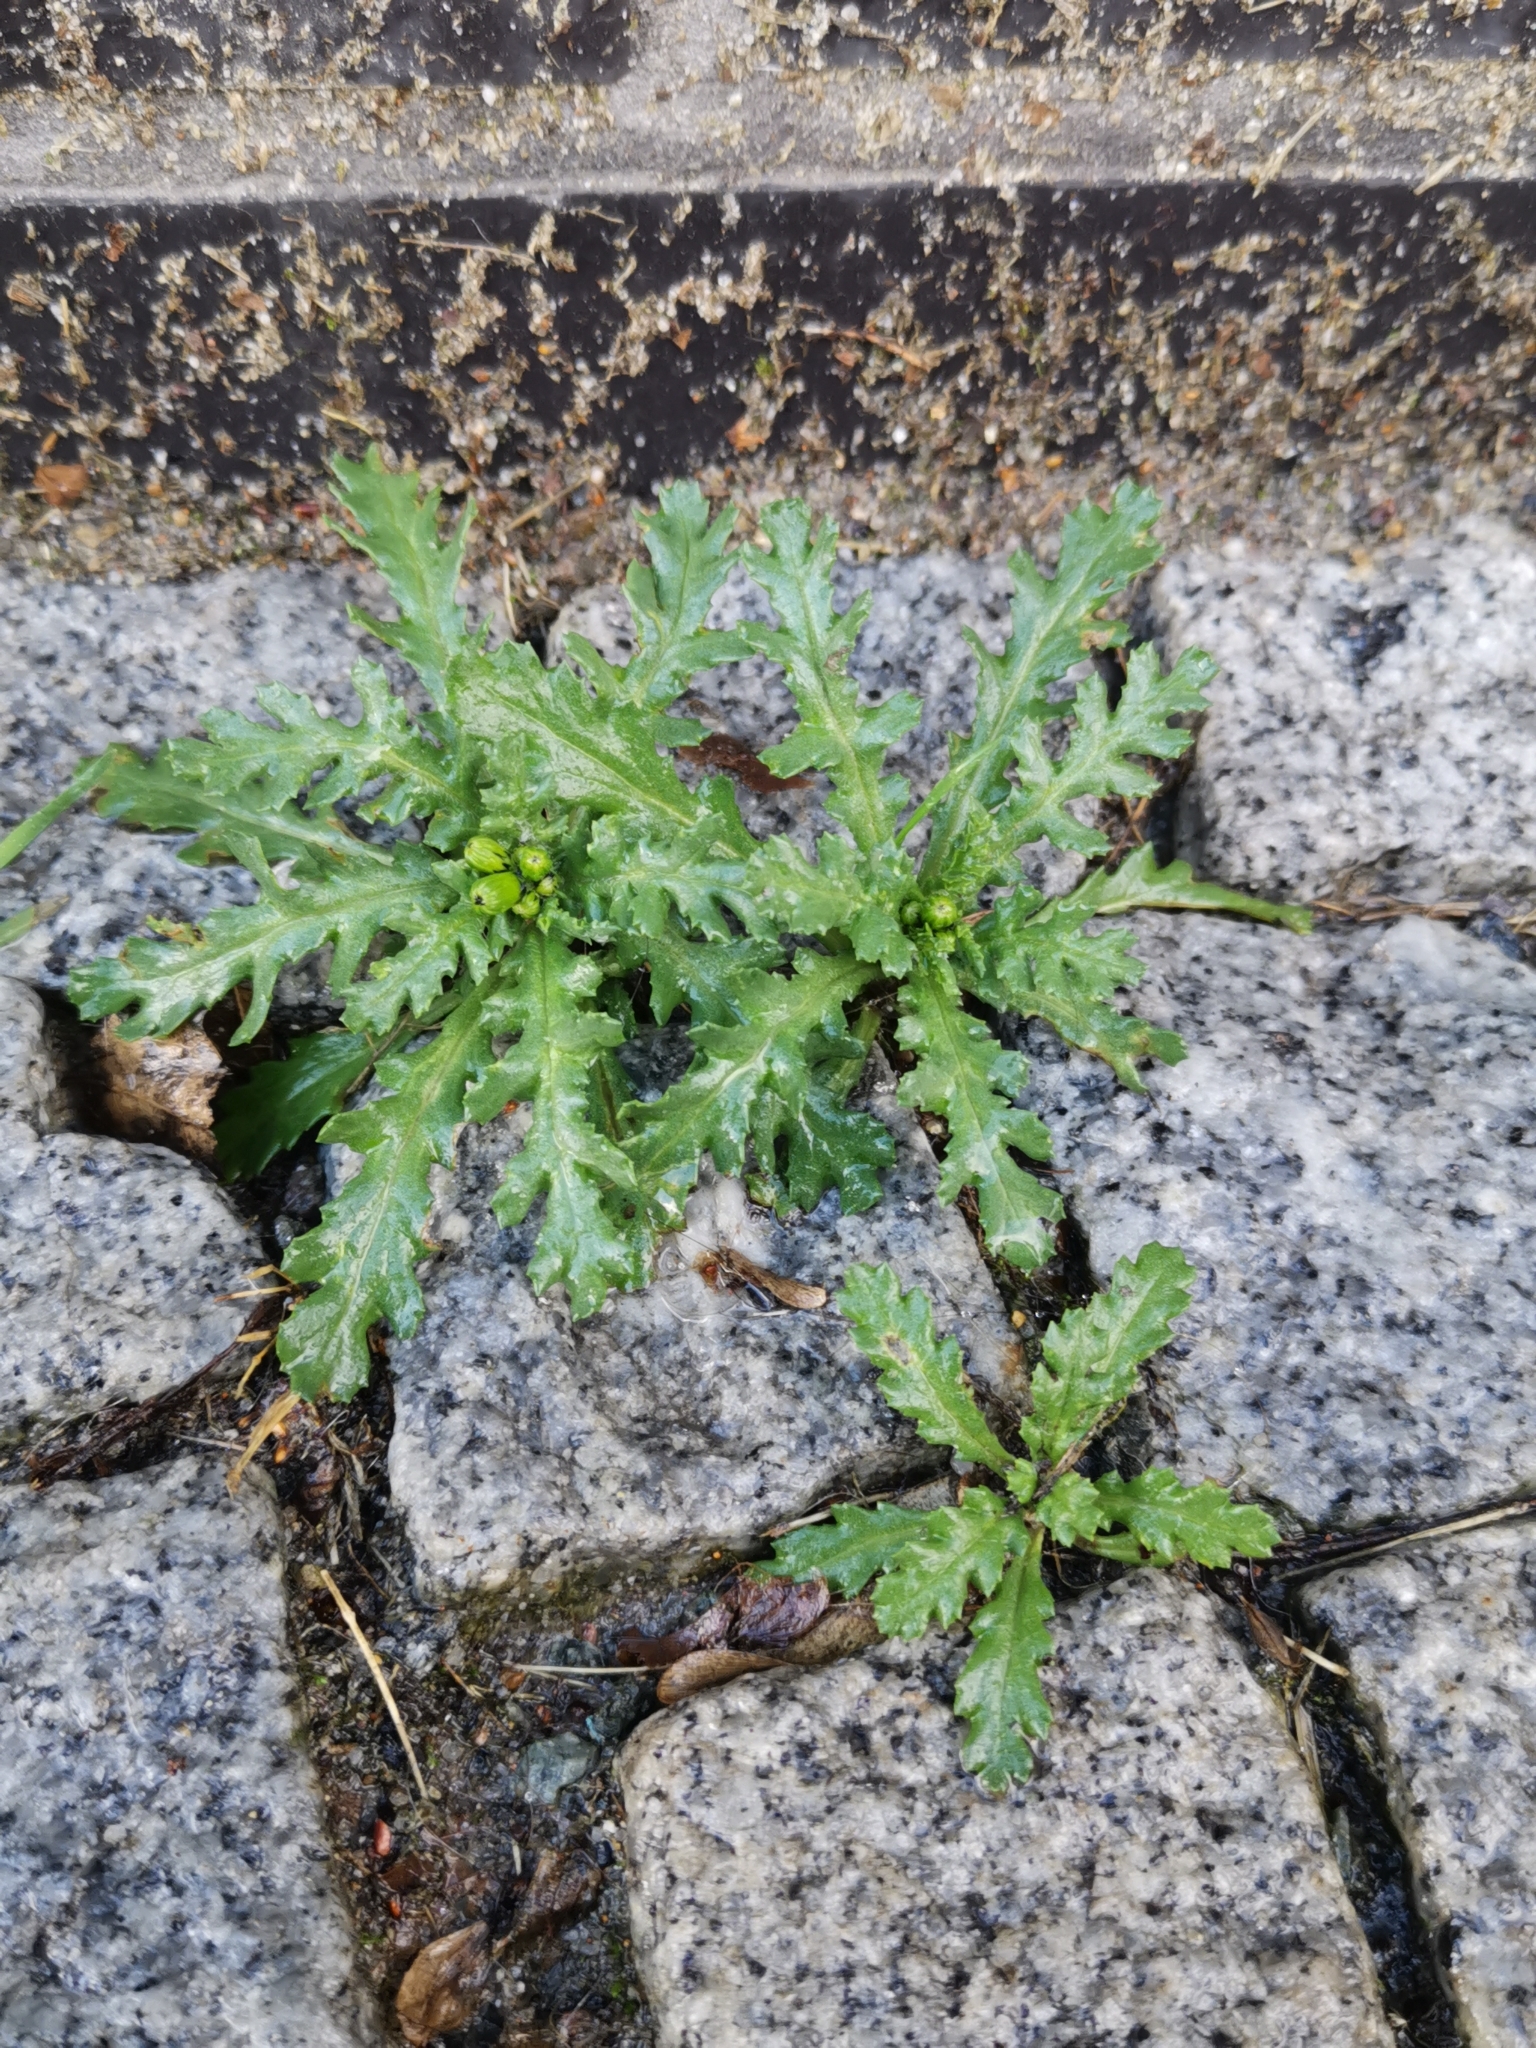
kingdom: Plantae
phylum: Tracheophyta
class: Magnoliopsida
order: Asterales
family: Asteraceae
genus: Senecio
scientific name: Senecio vulgaris
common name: Old-man-in-the-spring
